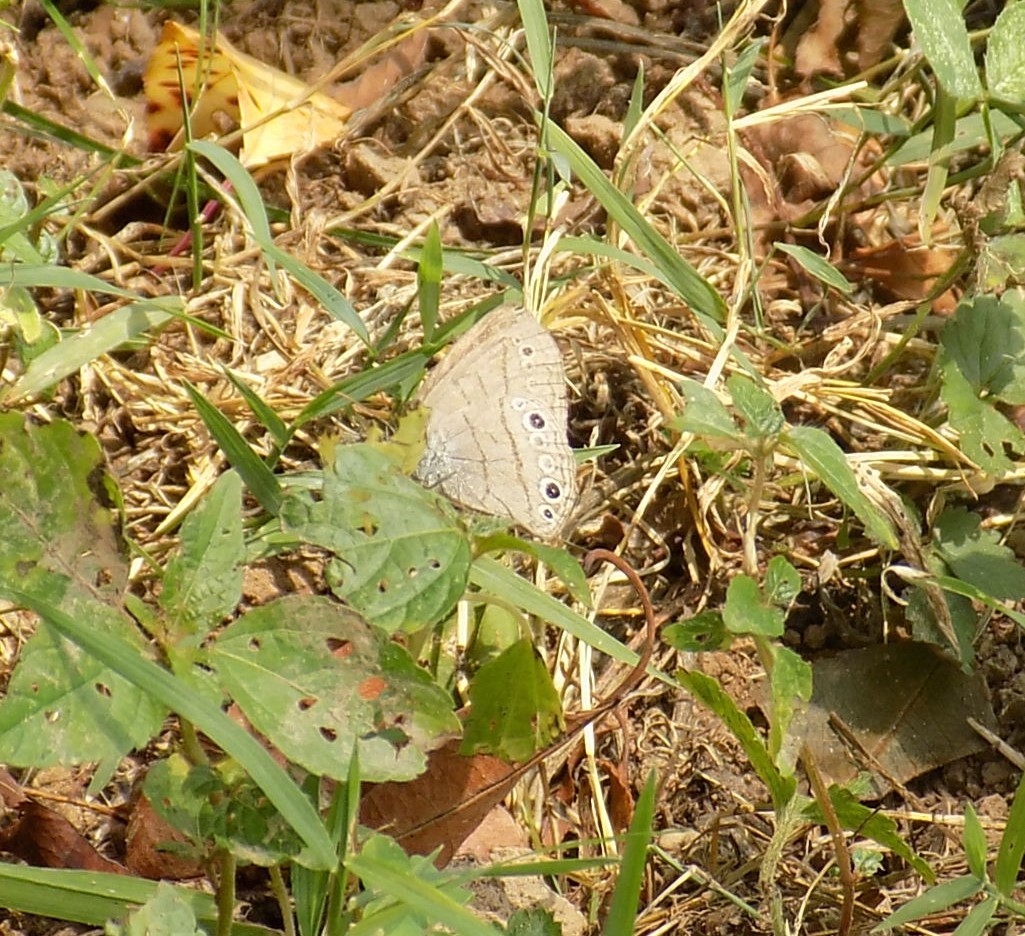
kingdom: Animalia
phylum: Arthropoda
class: Insecta
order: Lepidoptera
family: Nymphalidae
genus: Hermeuptychia
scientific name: Hermeuptychia hermes
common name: Hermes satyr
